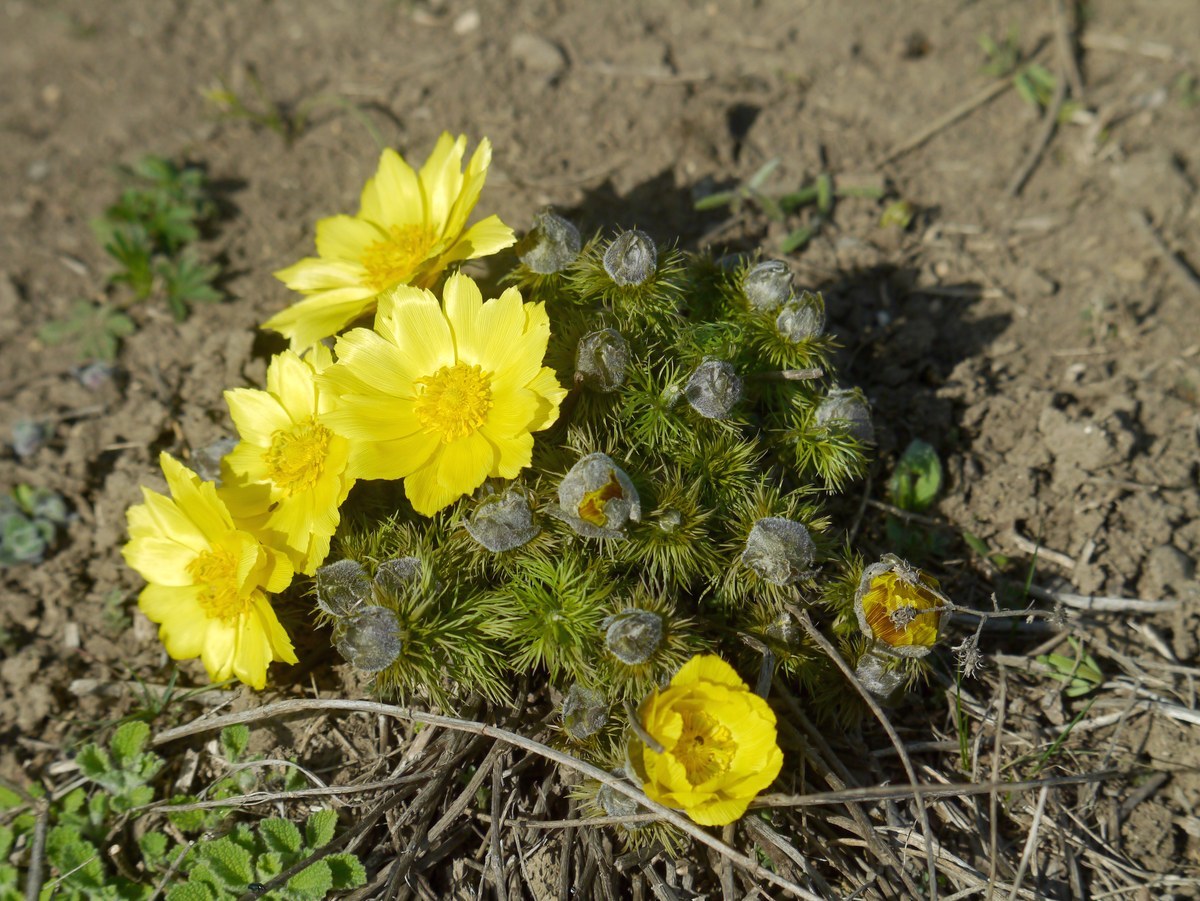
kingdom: Plantae
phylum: Tracheophyta
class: Magnoliopsida
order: Ranunculales
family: Ranunculaceae
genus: Adonis
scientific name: Adonis vernalis
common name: Yellow pheasants-eye
